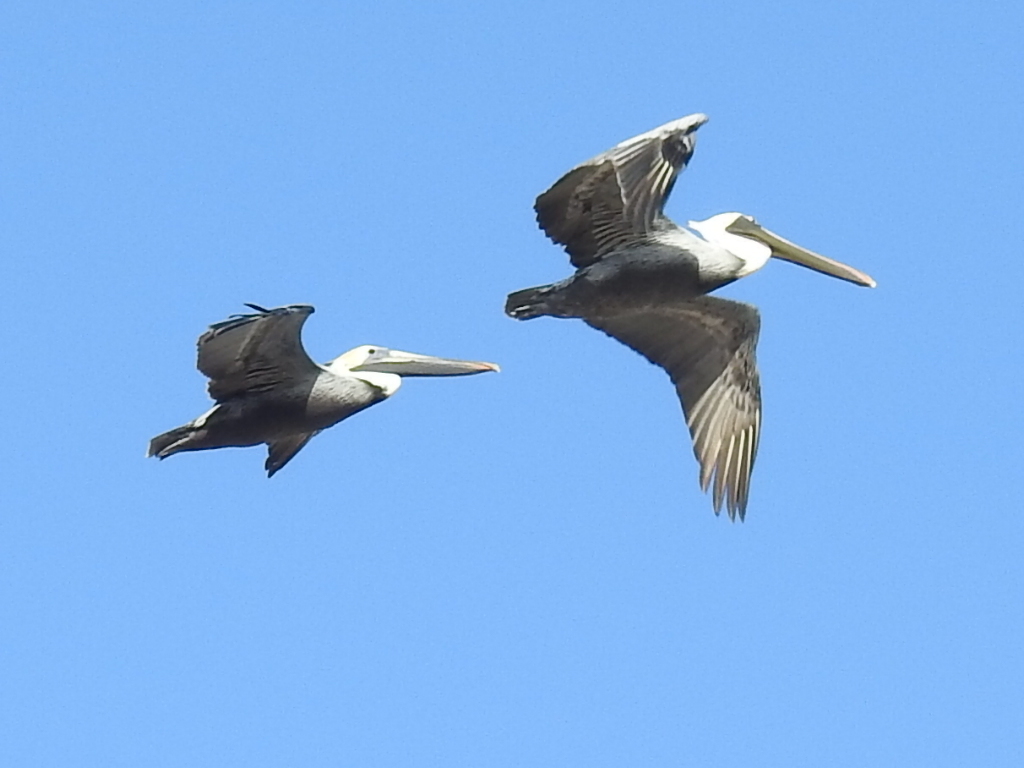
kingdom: Animalia
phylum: Chordata
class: Aves
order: Pelecaniformes
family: Pelecanidae
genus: Pelecanus
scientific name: Pelecanus occidentalis
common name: Brown pelican
